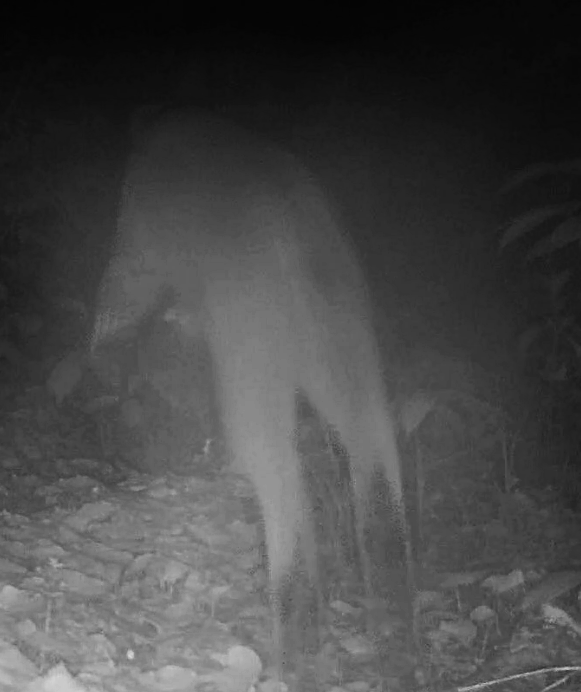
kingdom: Animalia
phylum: Chordata
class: Mammalia
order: Carnivora
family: Felidae
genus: Lynx
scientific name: Lynx rufus
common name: Bobcat
